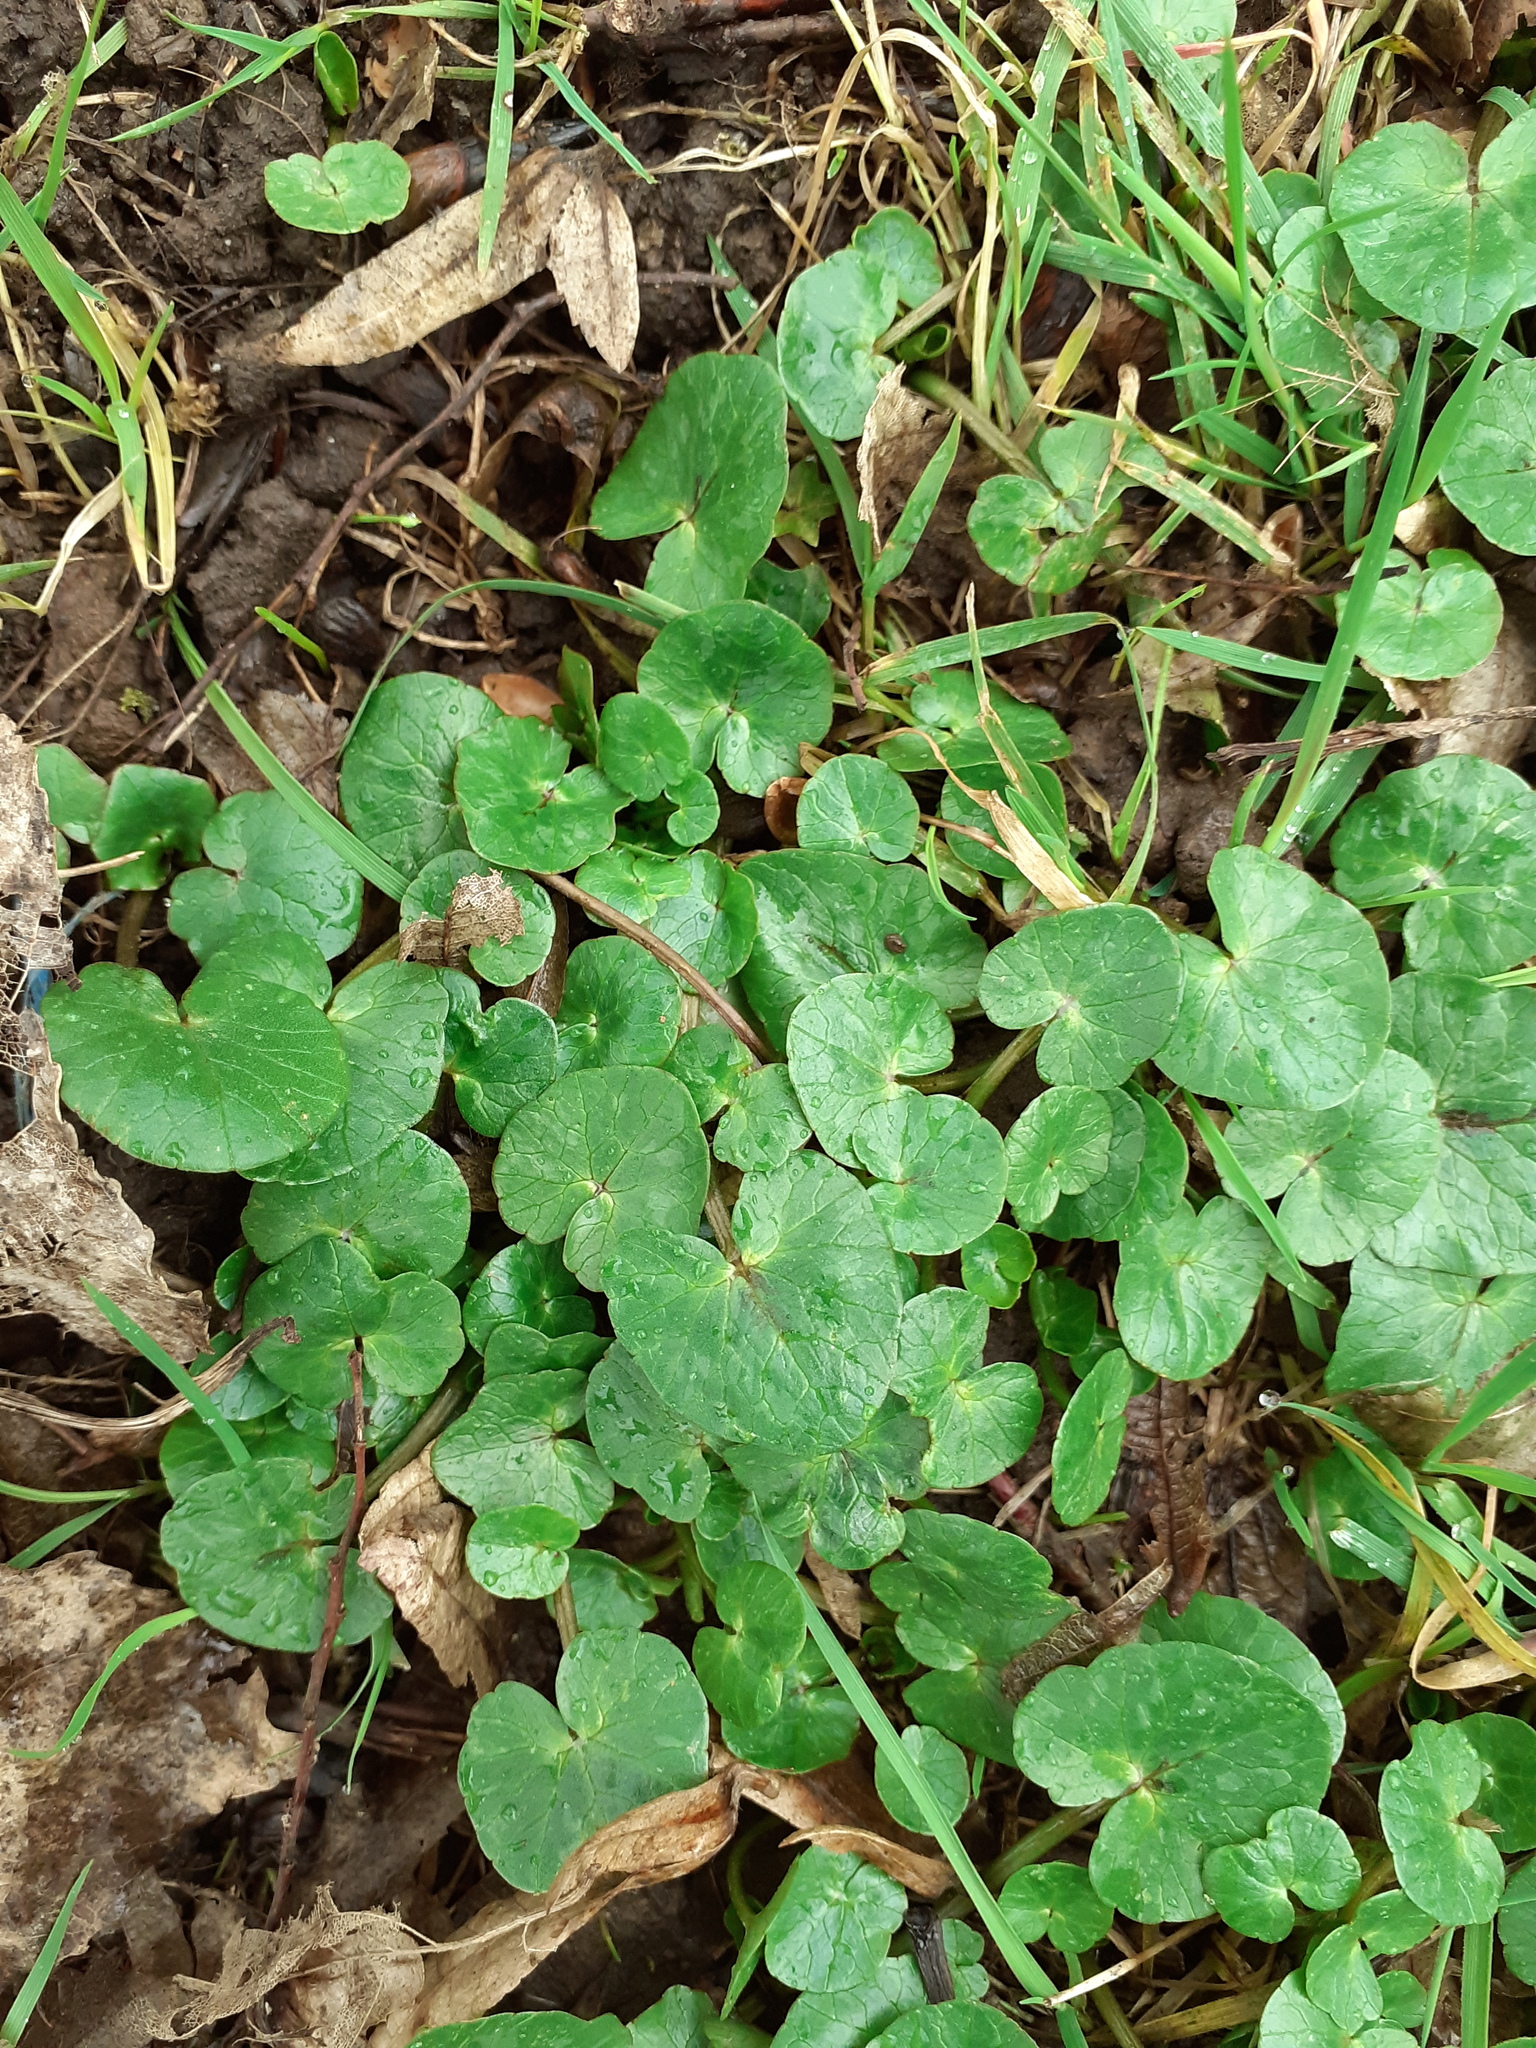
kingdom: Plantae
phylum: Tracheophyta
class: Magnoliopsida
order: Ranunculales
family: Ranunculaceae
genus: Ficaria
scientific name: Ficaria verna
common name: Lesser celandine
